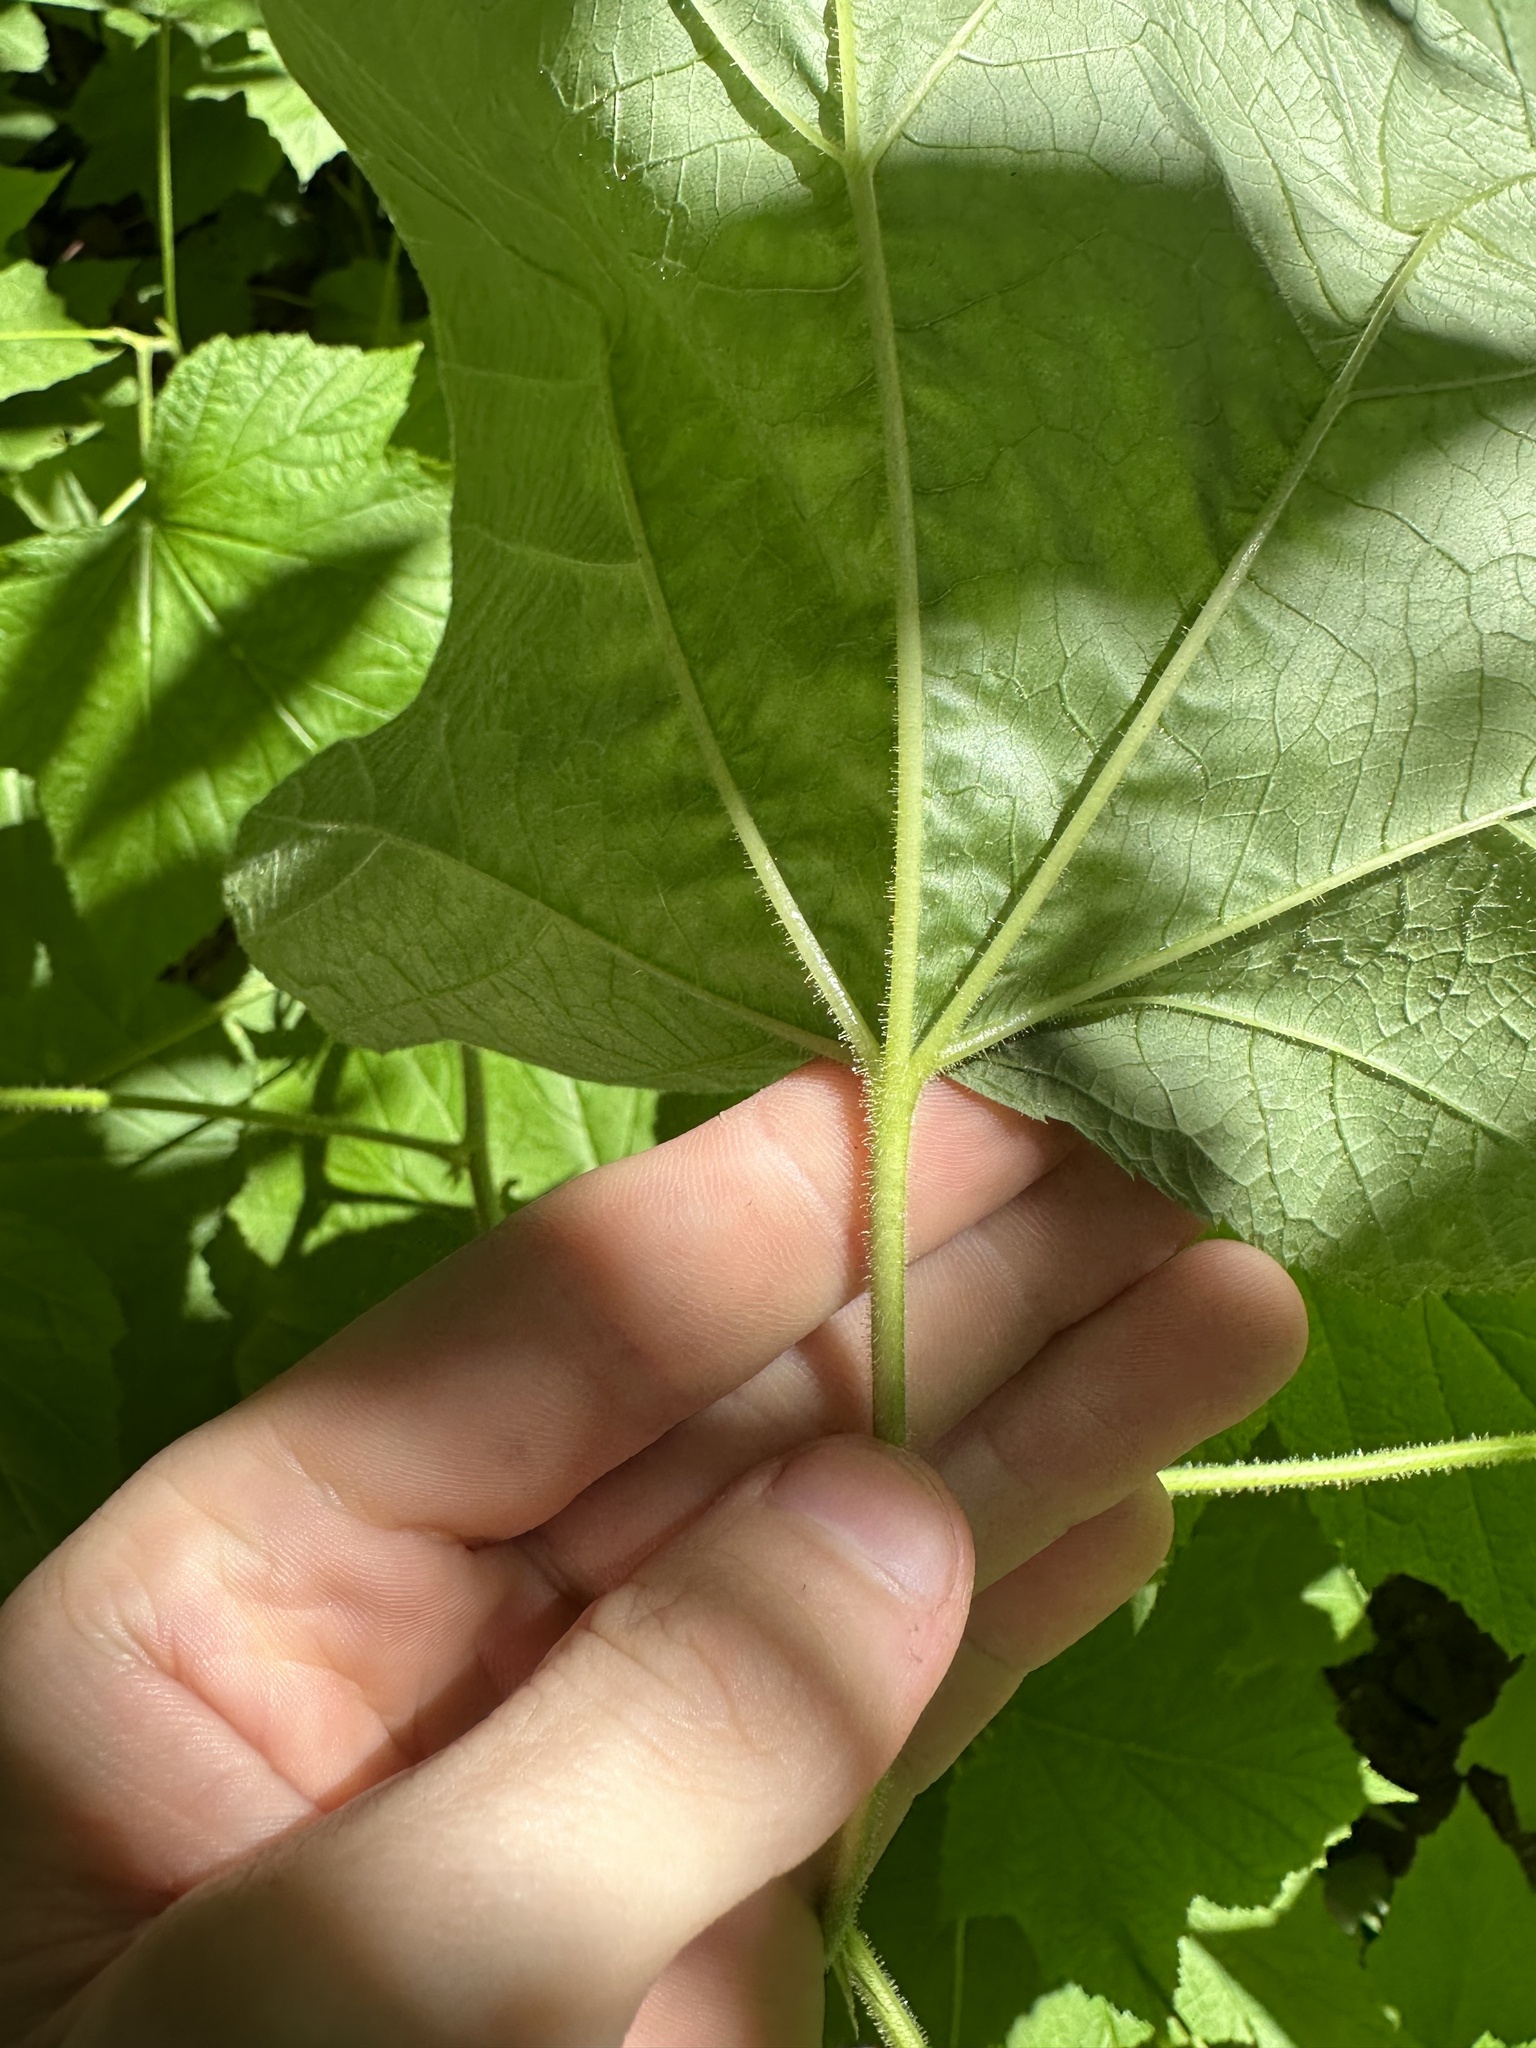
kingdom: Plantae
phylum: Tracheophyta
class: Magnoliopsida
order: Rosales
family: Rosaceae
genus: Rubus
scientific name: Rubus parviflorus
